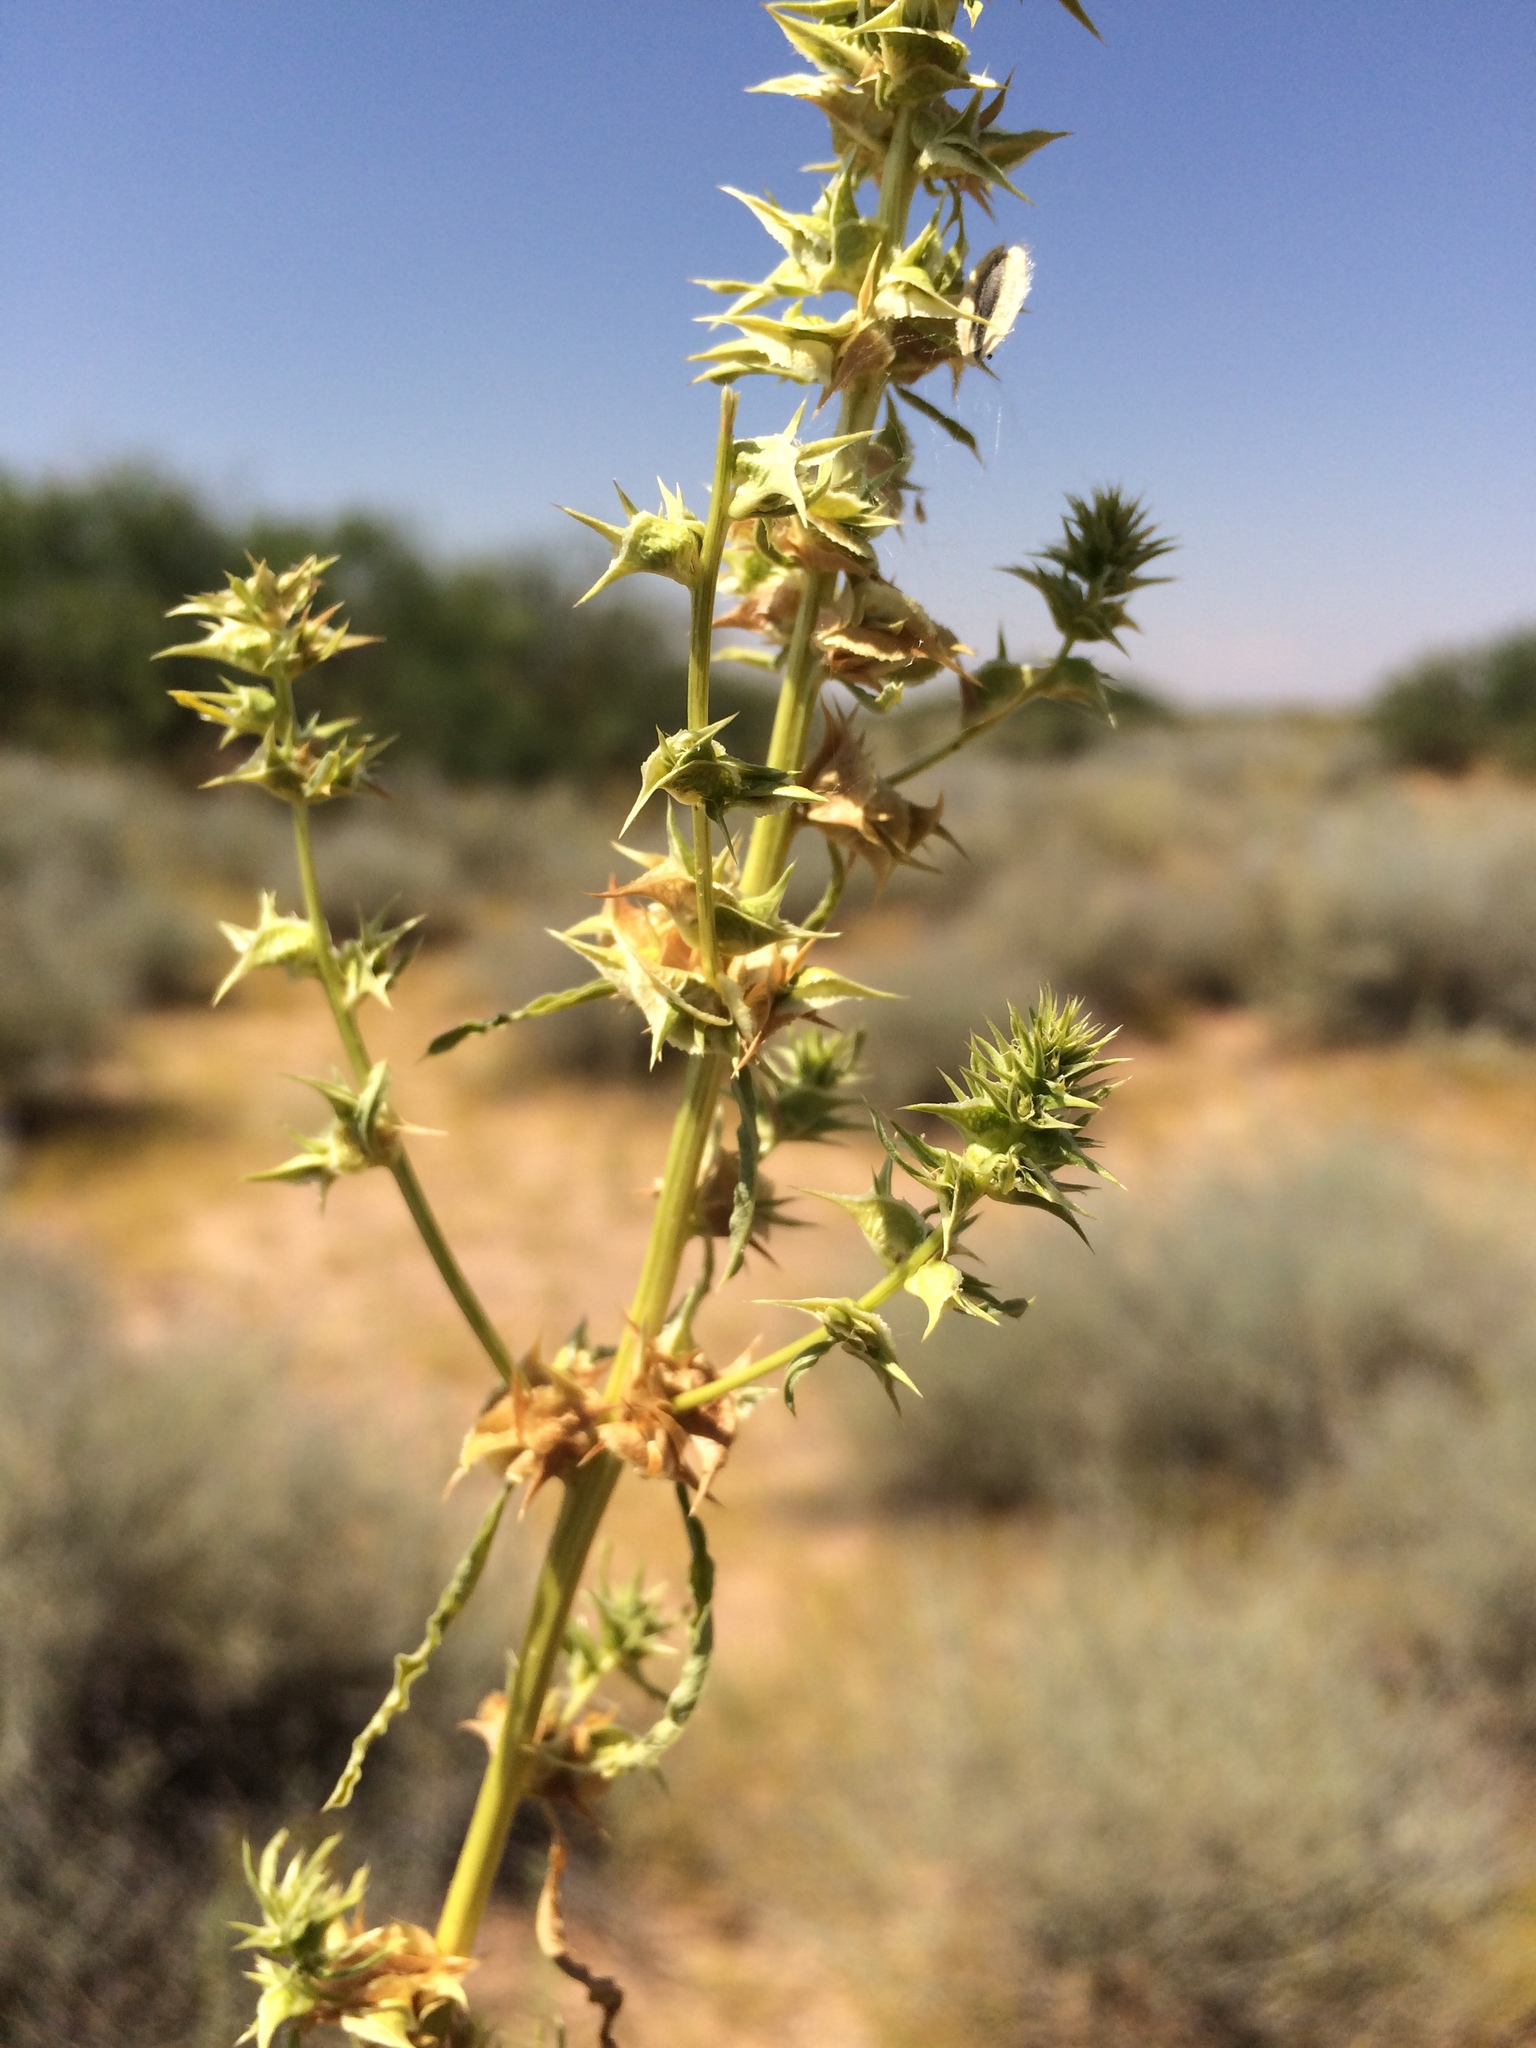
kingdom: Plantae
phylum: Tracheophyta
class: Magnoliopsida
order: Caryophyllales
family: Amaranthaceae
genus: Amaranthus
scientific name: Amaranthus acanthochiton
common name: Greenstripe
